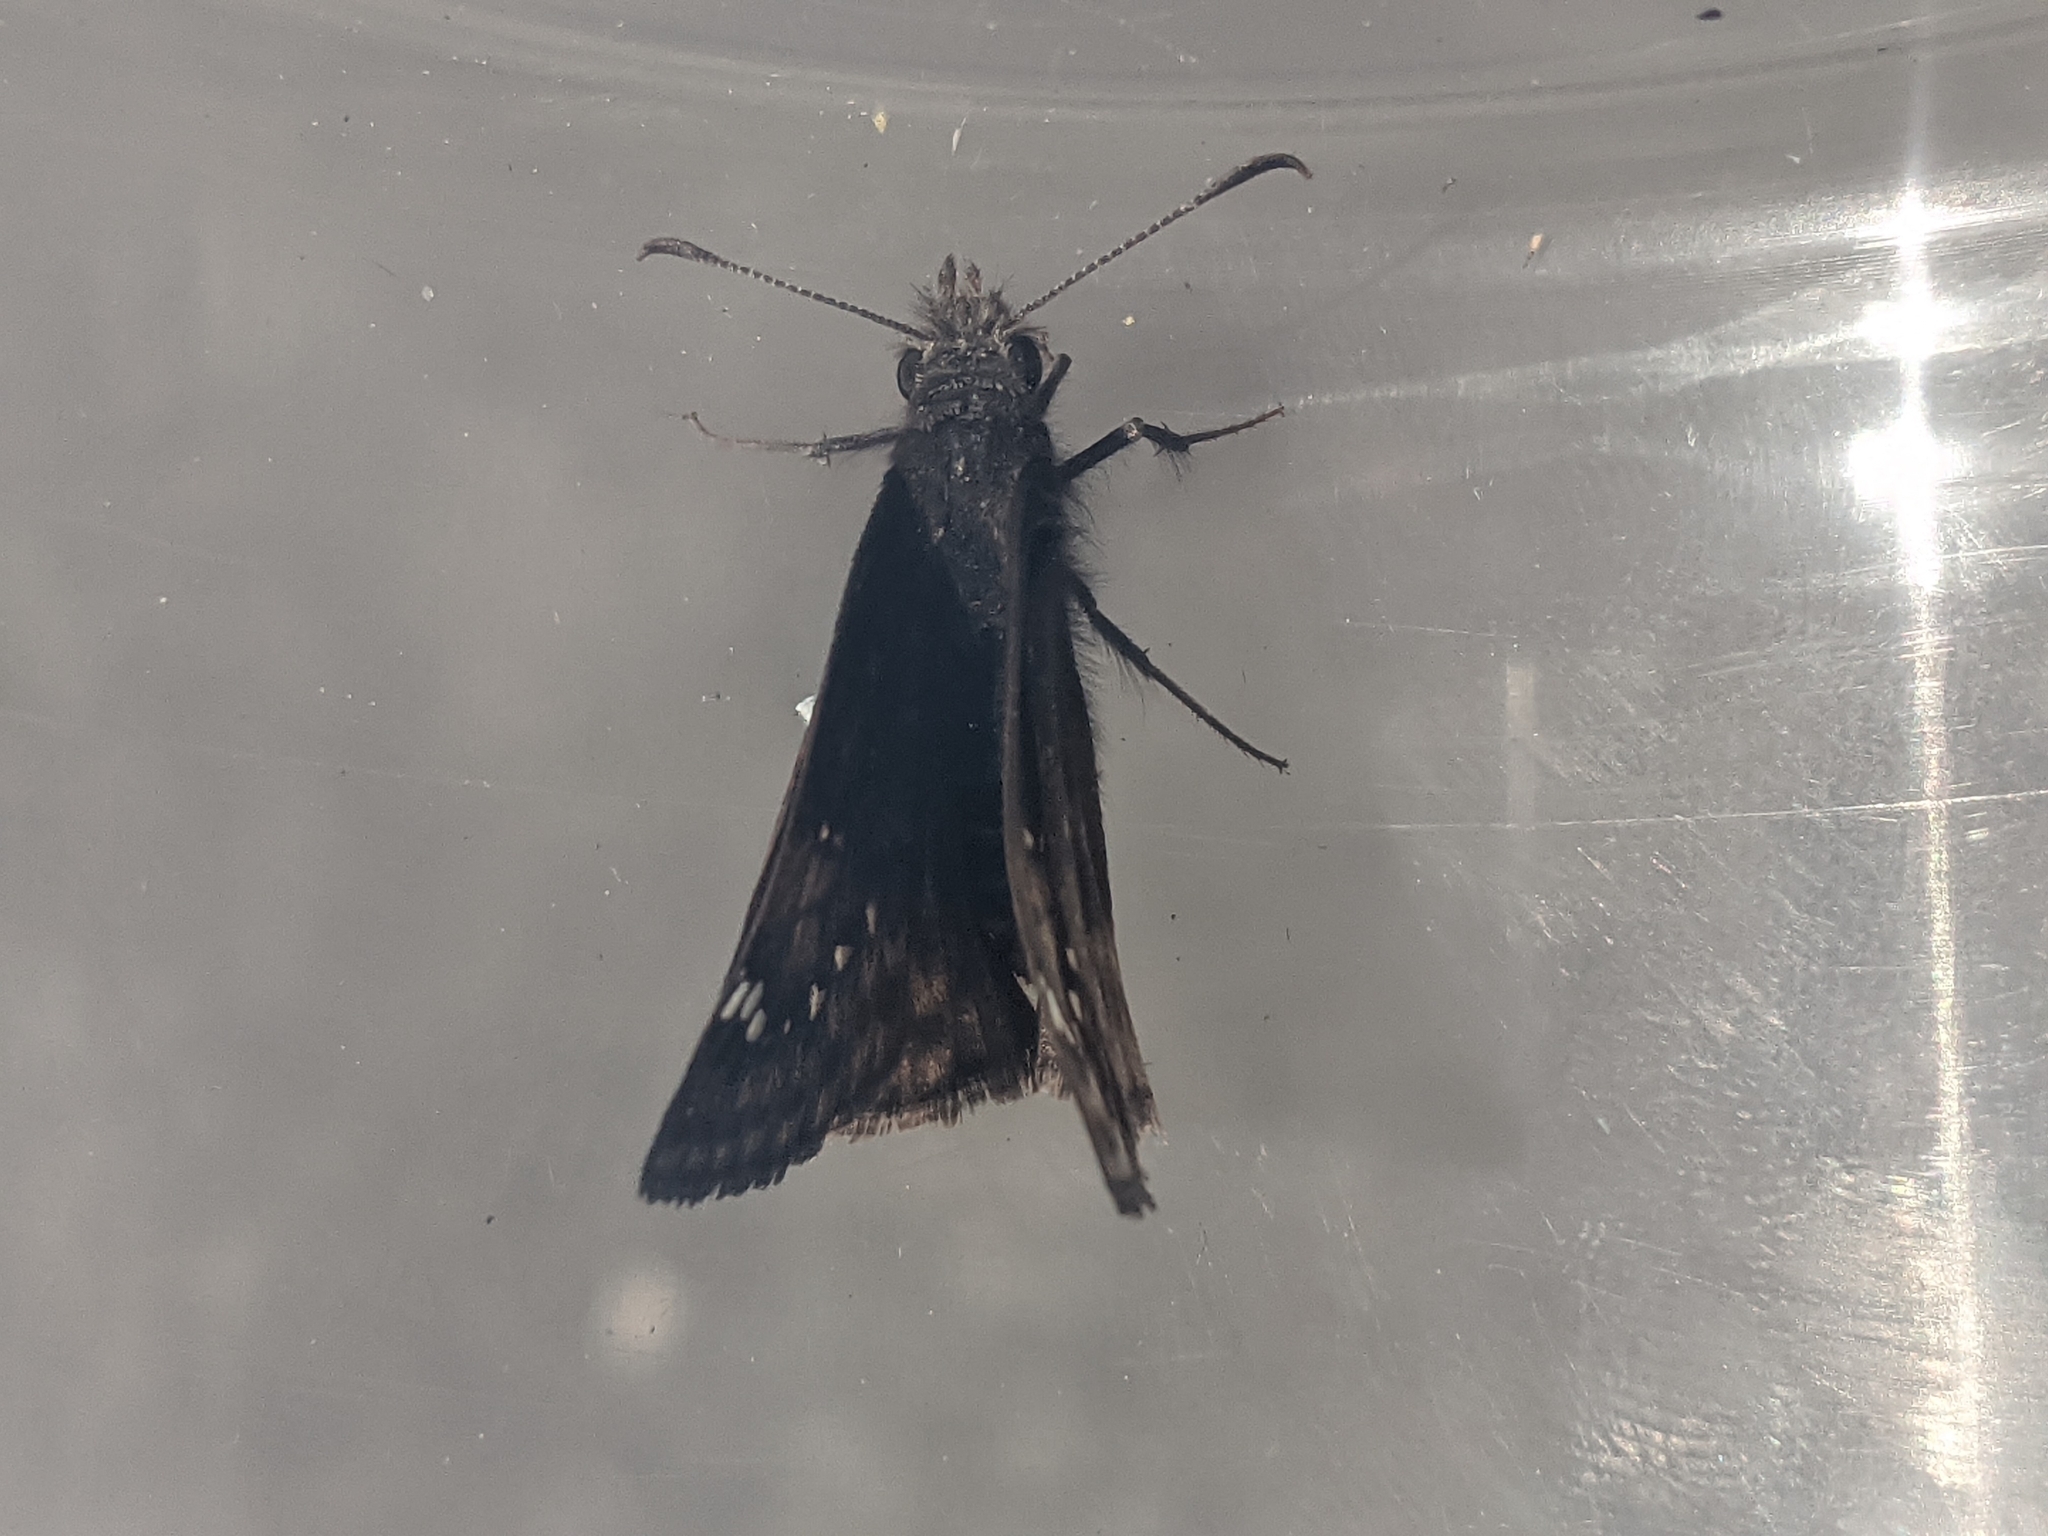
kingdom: Animalia
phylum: Arthropoda
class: Insecta
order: Lepidoptera
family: Hesperiidae
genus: Erynnis
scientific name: Erynnis juvenalis
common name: Juvenal's duskywing
